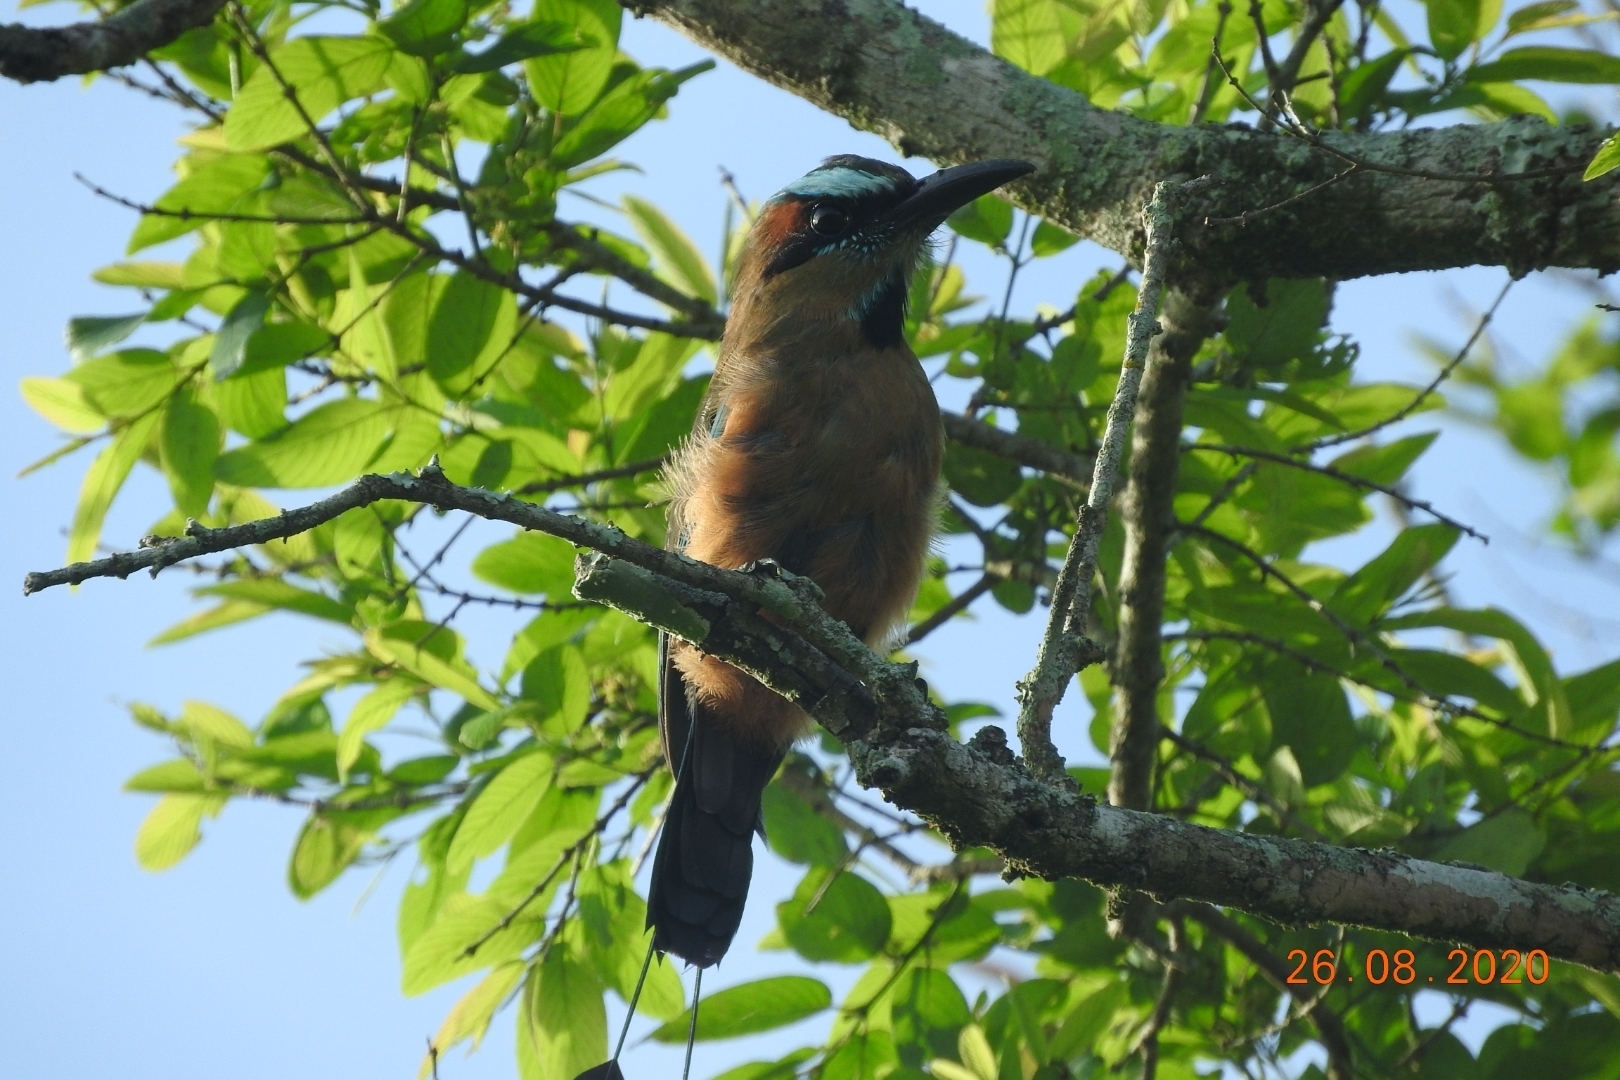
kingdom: Animalia
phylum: Chordata
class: Aves
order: Coraciiformes
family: Momotidae
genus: Eumomota
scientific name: Eumomota superciliosa
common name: Turquoise-browed motmot
